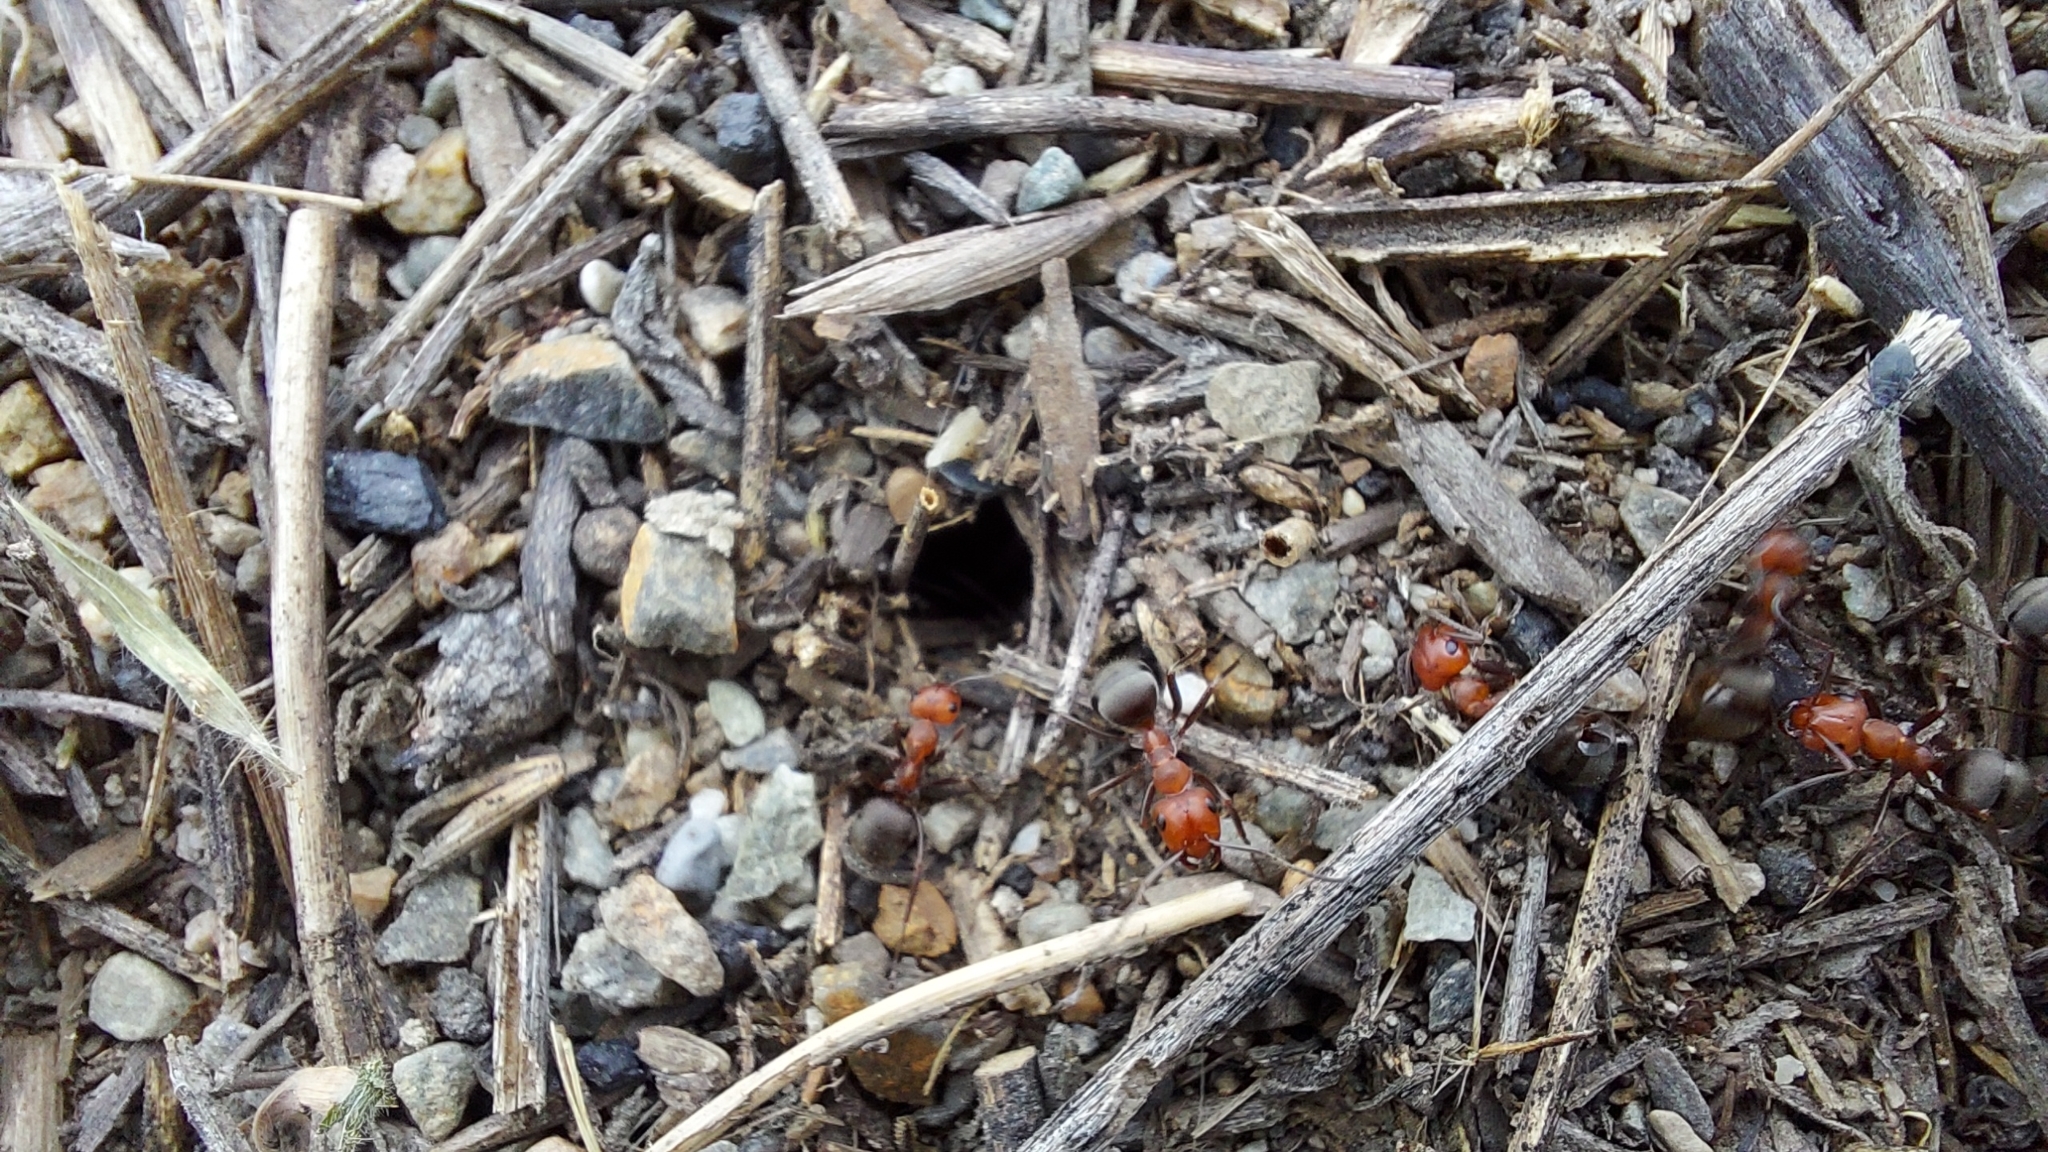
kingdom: Animalia
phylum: Arthropoda
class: Insecta
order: Hymenoptera
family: Formicidae
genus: Formica
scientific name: Formica obscuripes
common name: Western thatching ant
